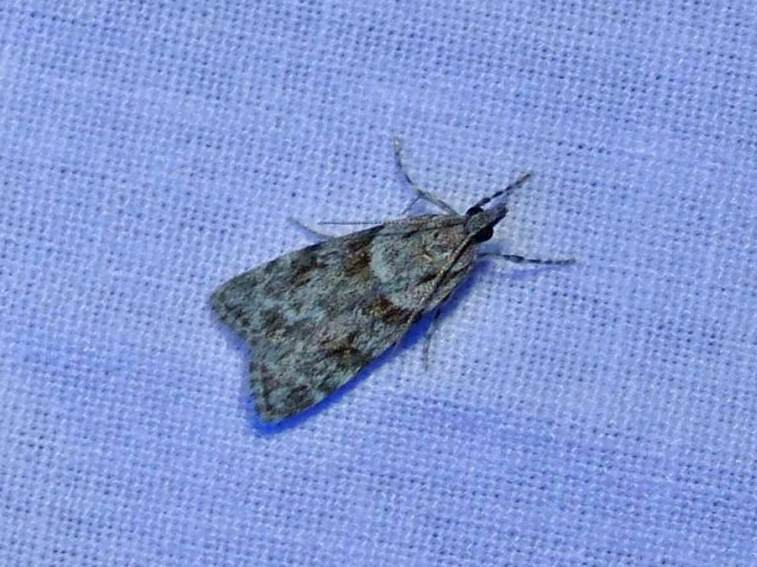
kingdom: Animalia
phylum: Arthropoda
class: Insecta
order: Lepidoptera
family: Crambidae
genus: Scoparia
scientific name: Scoparia biplagialis
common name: Double-striped scoparia moth
